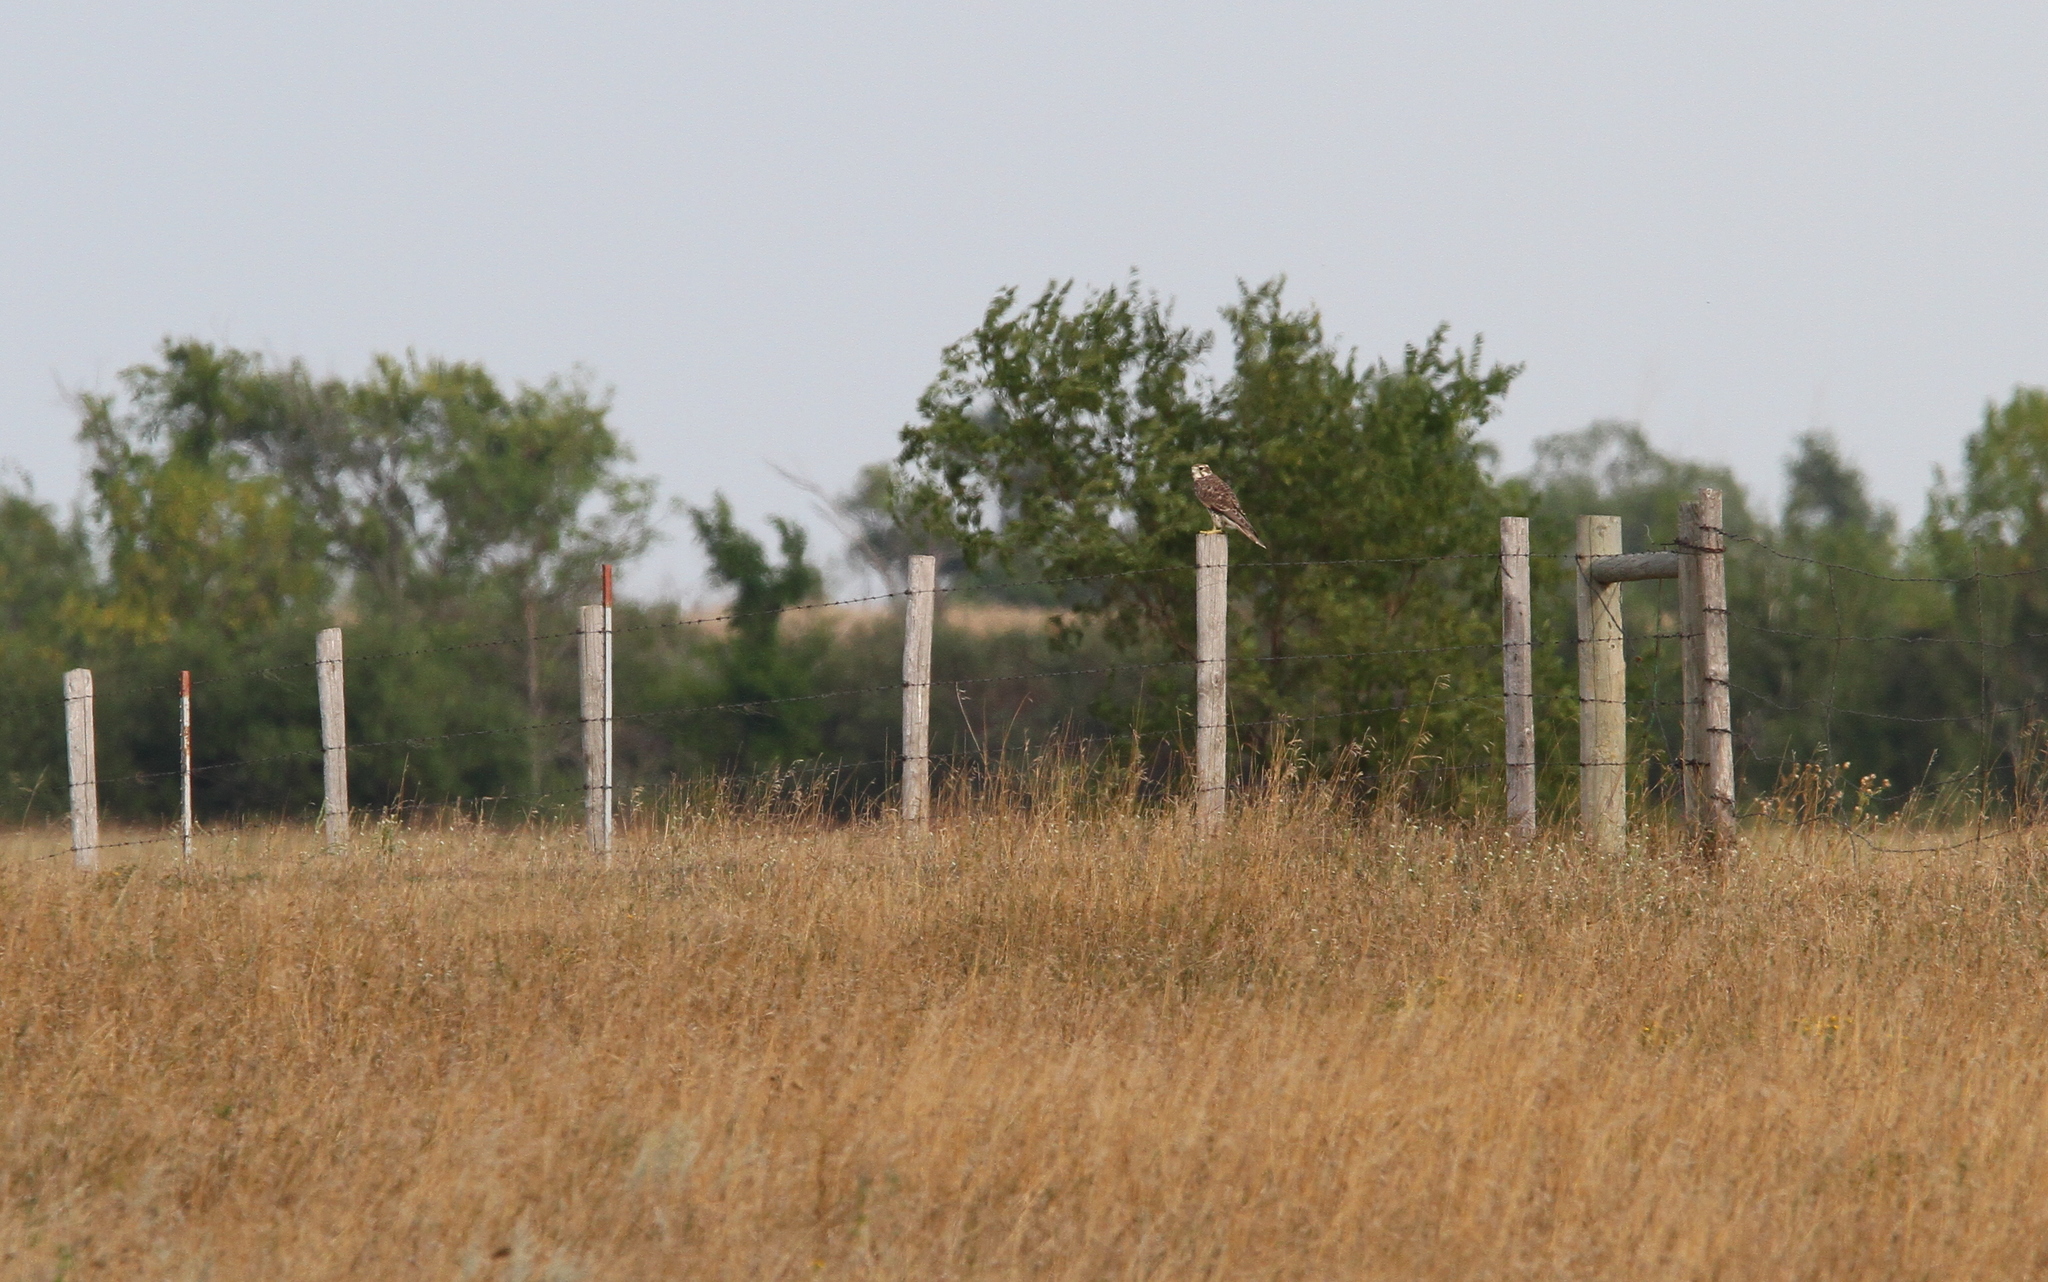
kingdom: Animalia
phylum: Chordata
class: Aves
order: Falconiformes
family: Falconidae
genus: Falco
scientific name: Falco mexicanus
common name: Prairie falcon
